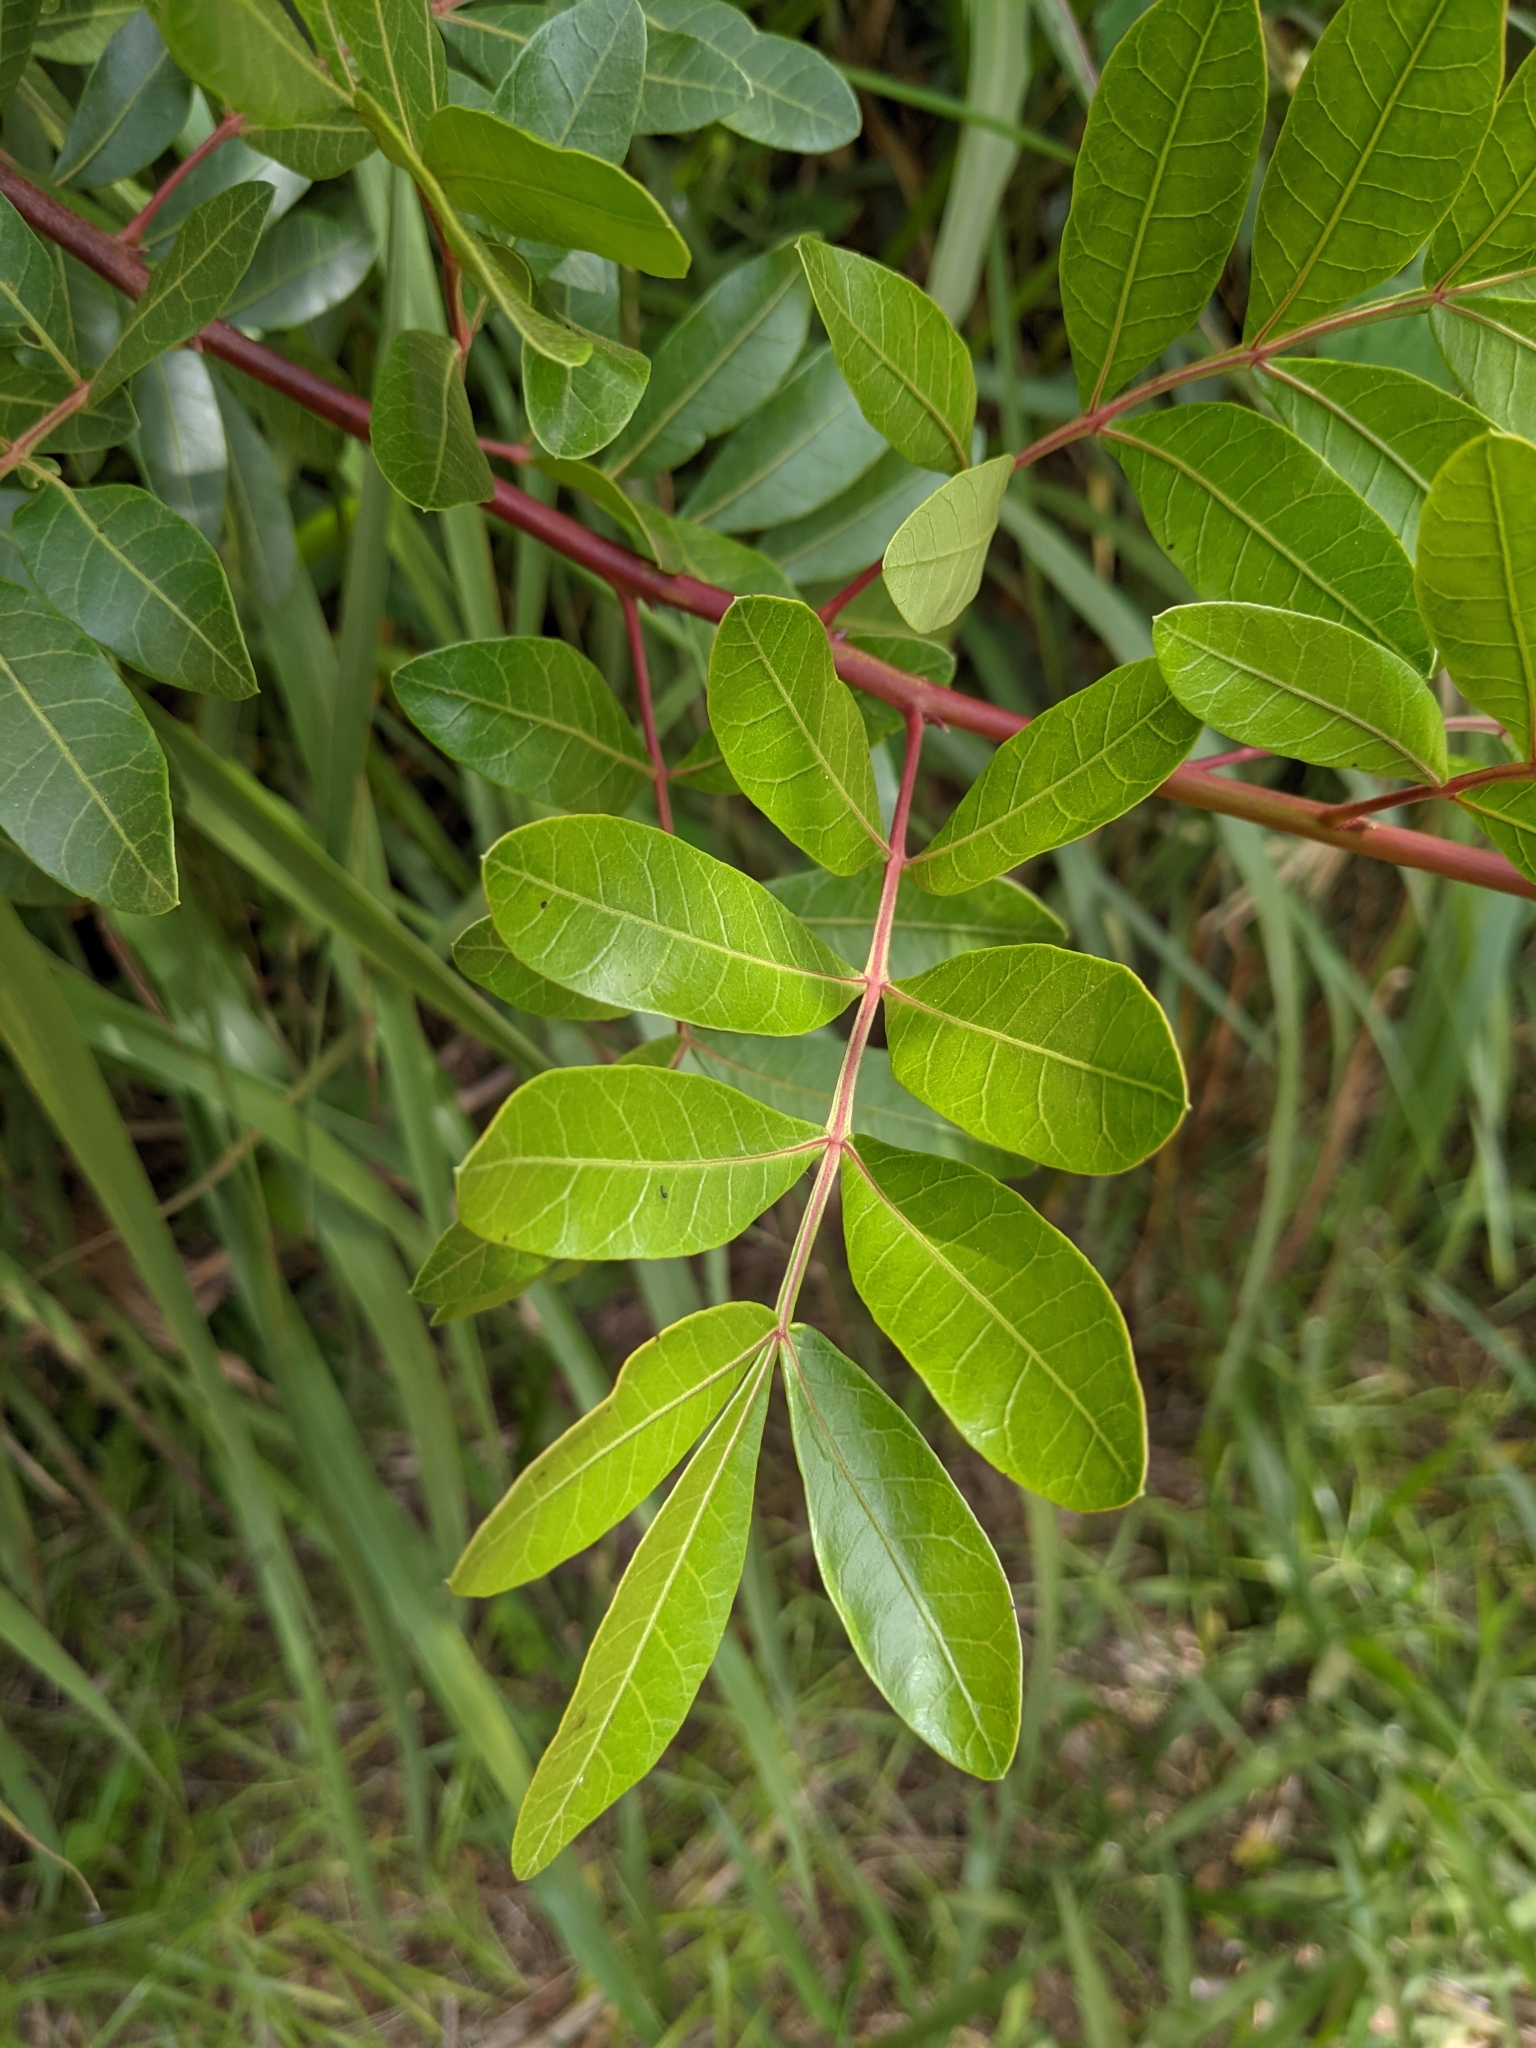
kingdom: Plantae
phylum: Tracheophyta
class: Magnoliopsida
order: Sapindales
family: Anacardiaceae
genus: Schinus
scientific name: Schinus terebinthifolia
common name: Brazilian peppertree
